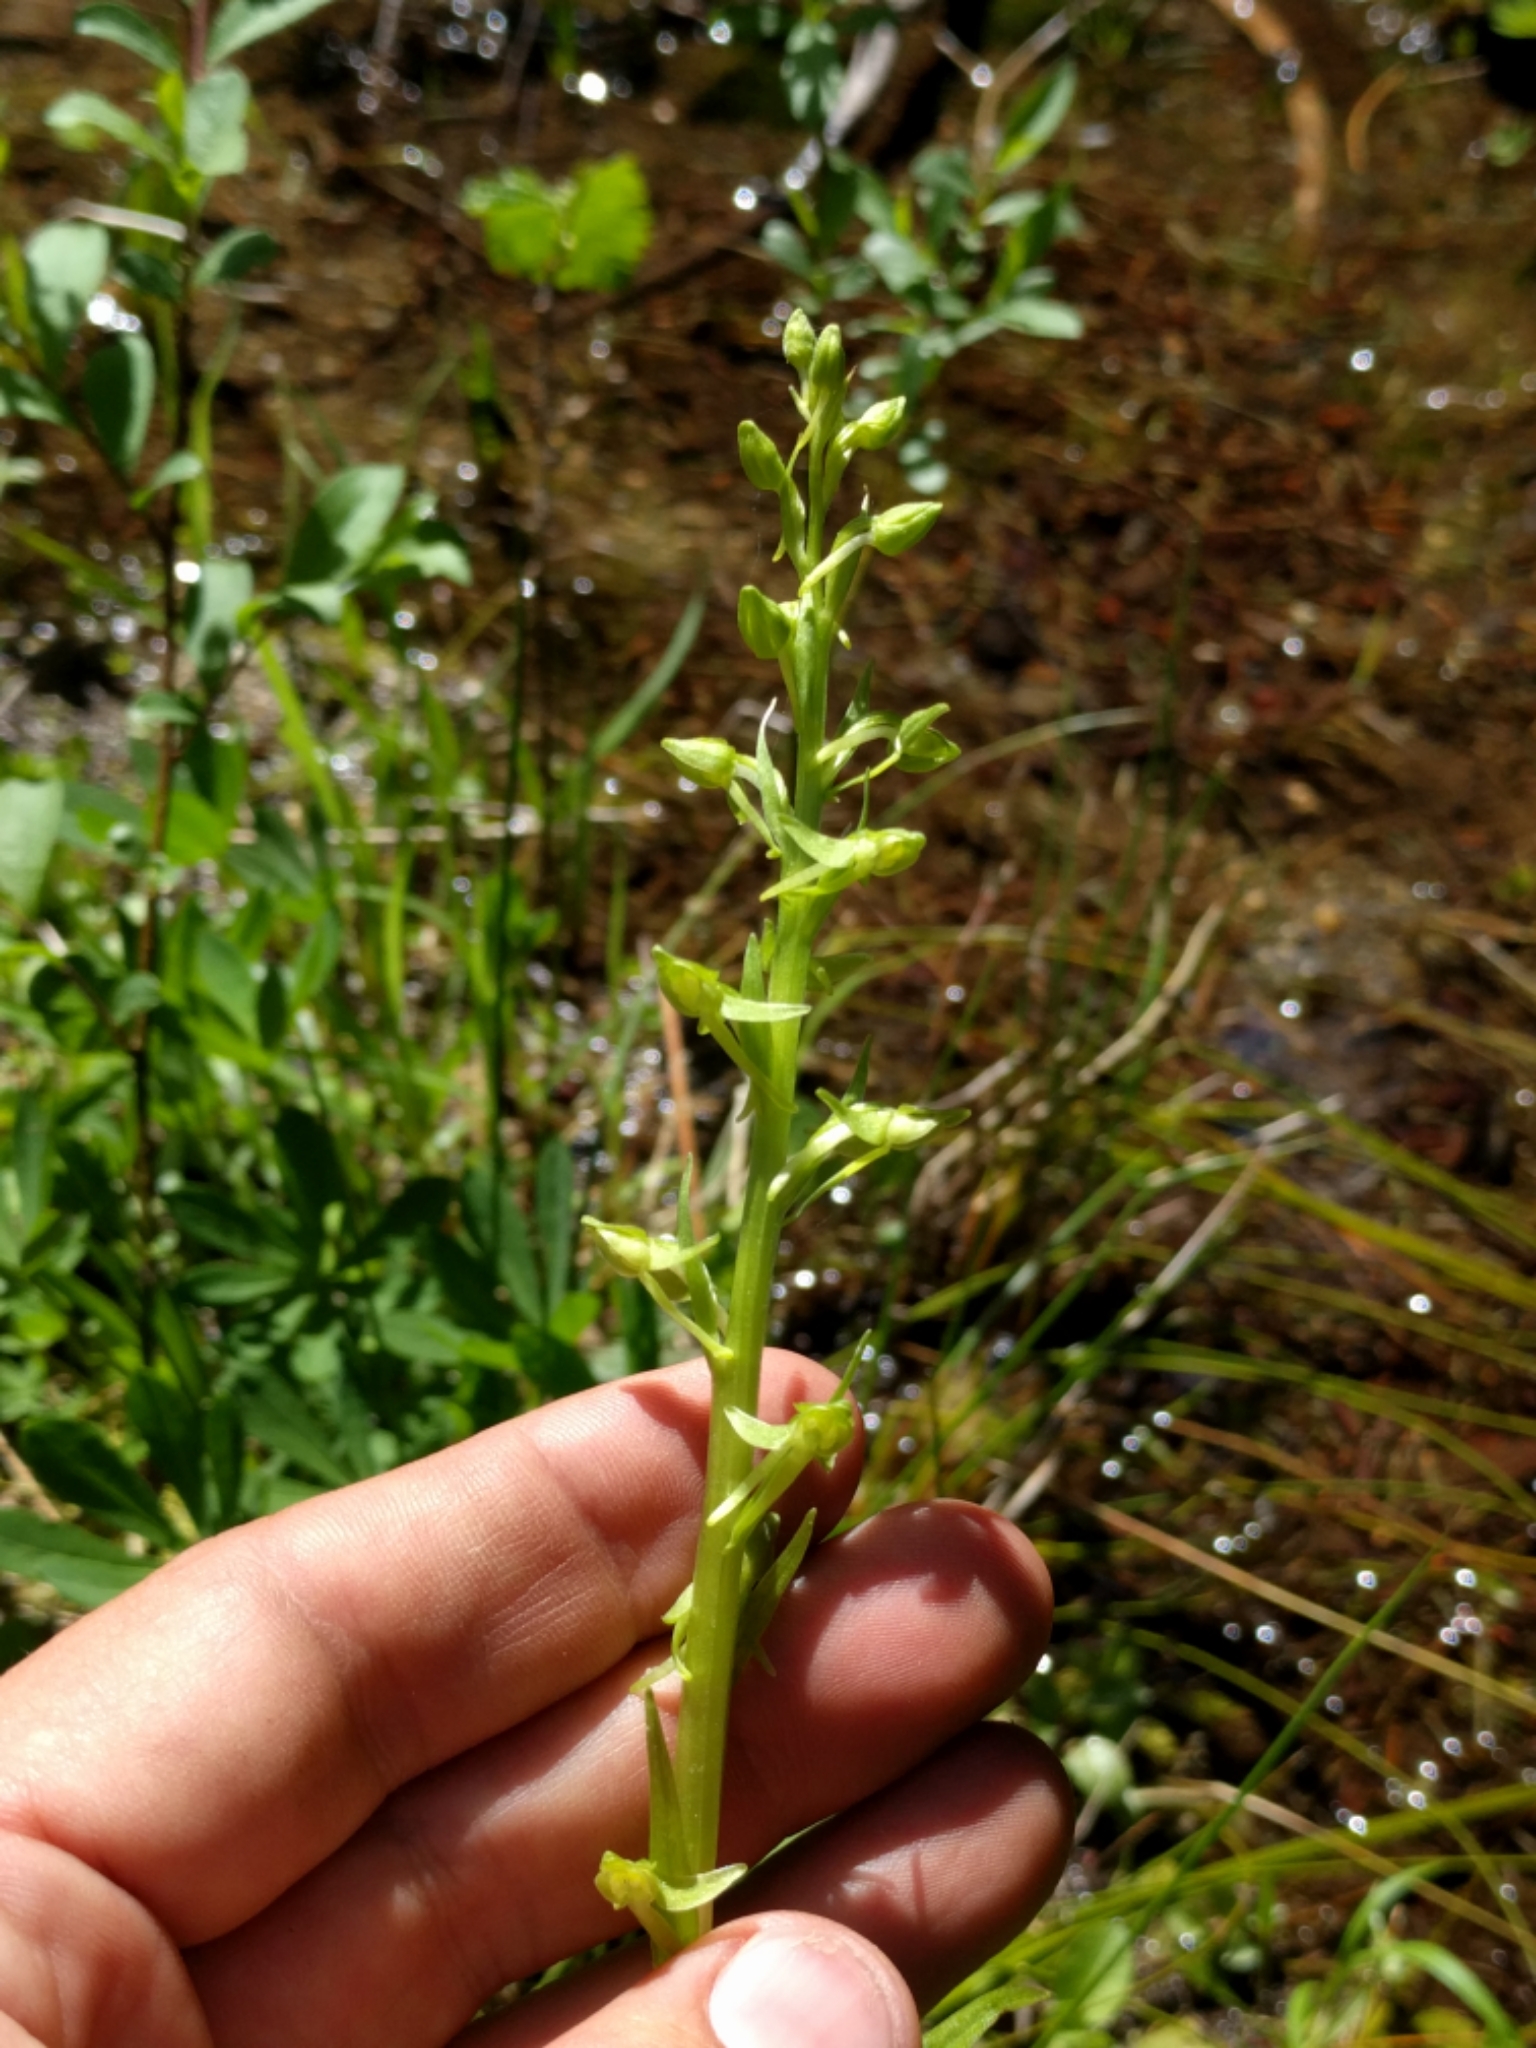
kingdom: Plantae
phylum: Tracheophyta
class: Liliopsida
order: Asparagales
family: Orchidaceae
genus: Platanthera
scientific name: Platanthera sparsiflora
